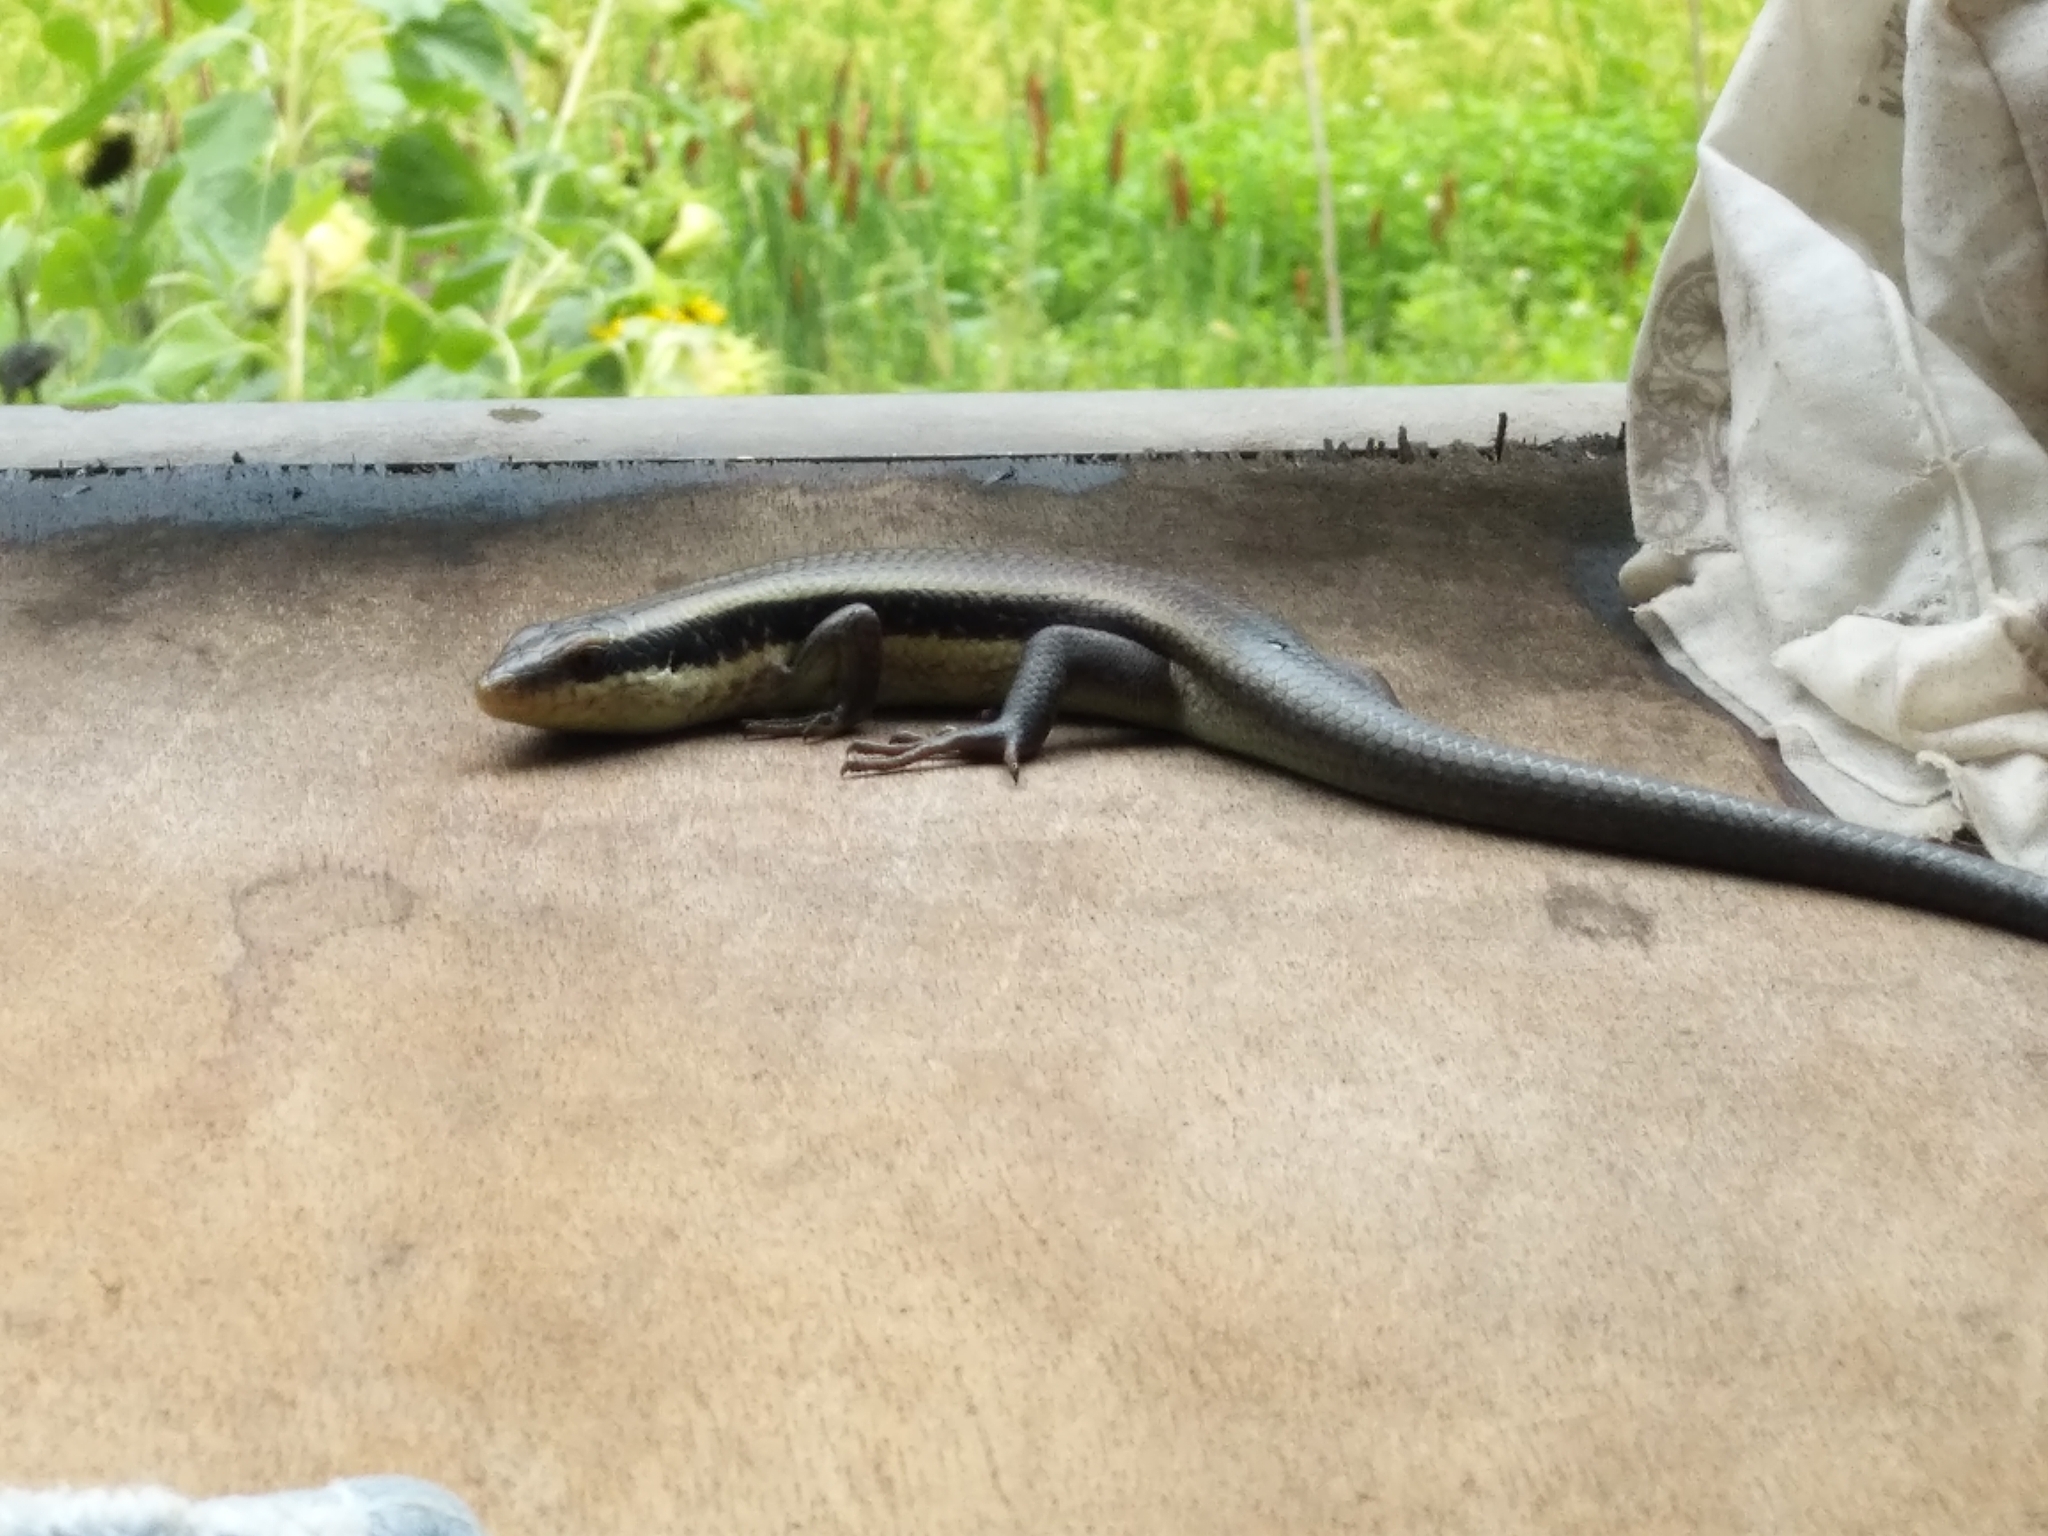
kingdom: Animalia
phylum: Chordata
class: Squamata
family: Scincidae
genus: Eutropis
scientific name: Eutropis longicaudata
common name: Long-tailed sun skink
